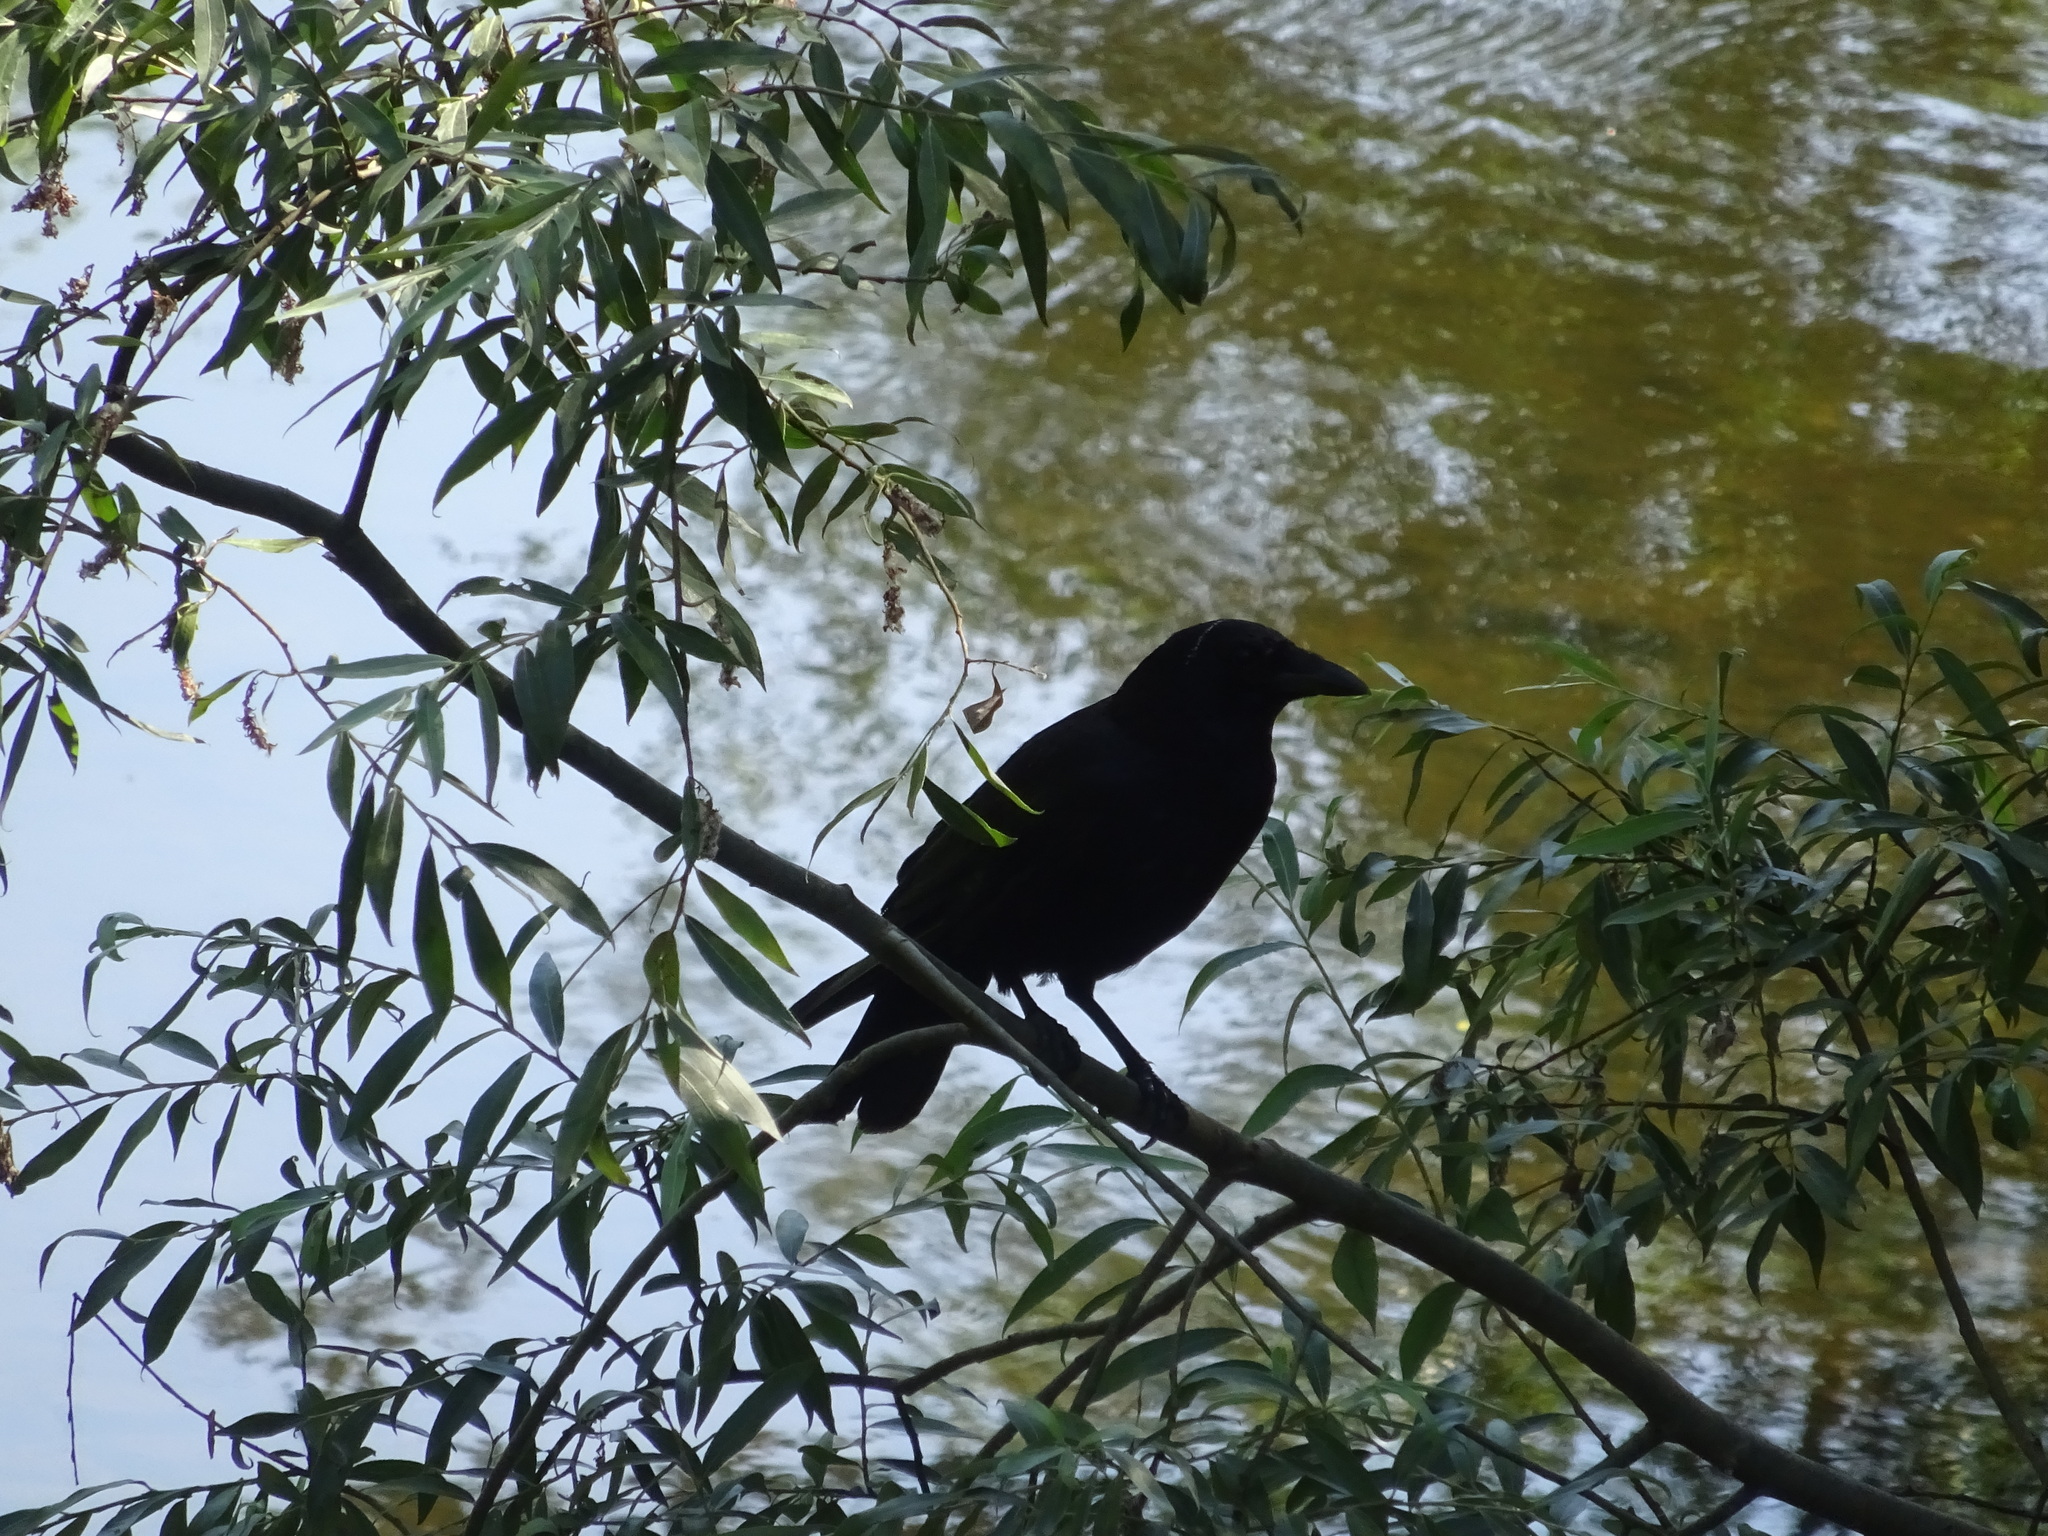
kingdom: Animalia
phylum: Chordata
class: Aves
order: Passeriformes
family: Corvidae
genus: Corvus
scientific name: Corvus corone
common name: Carrion crow
